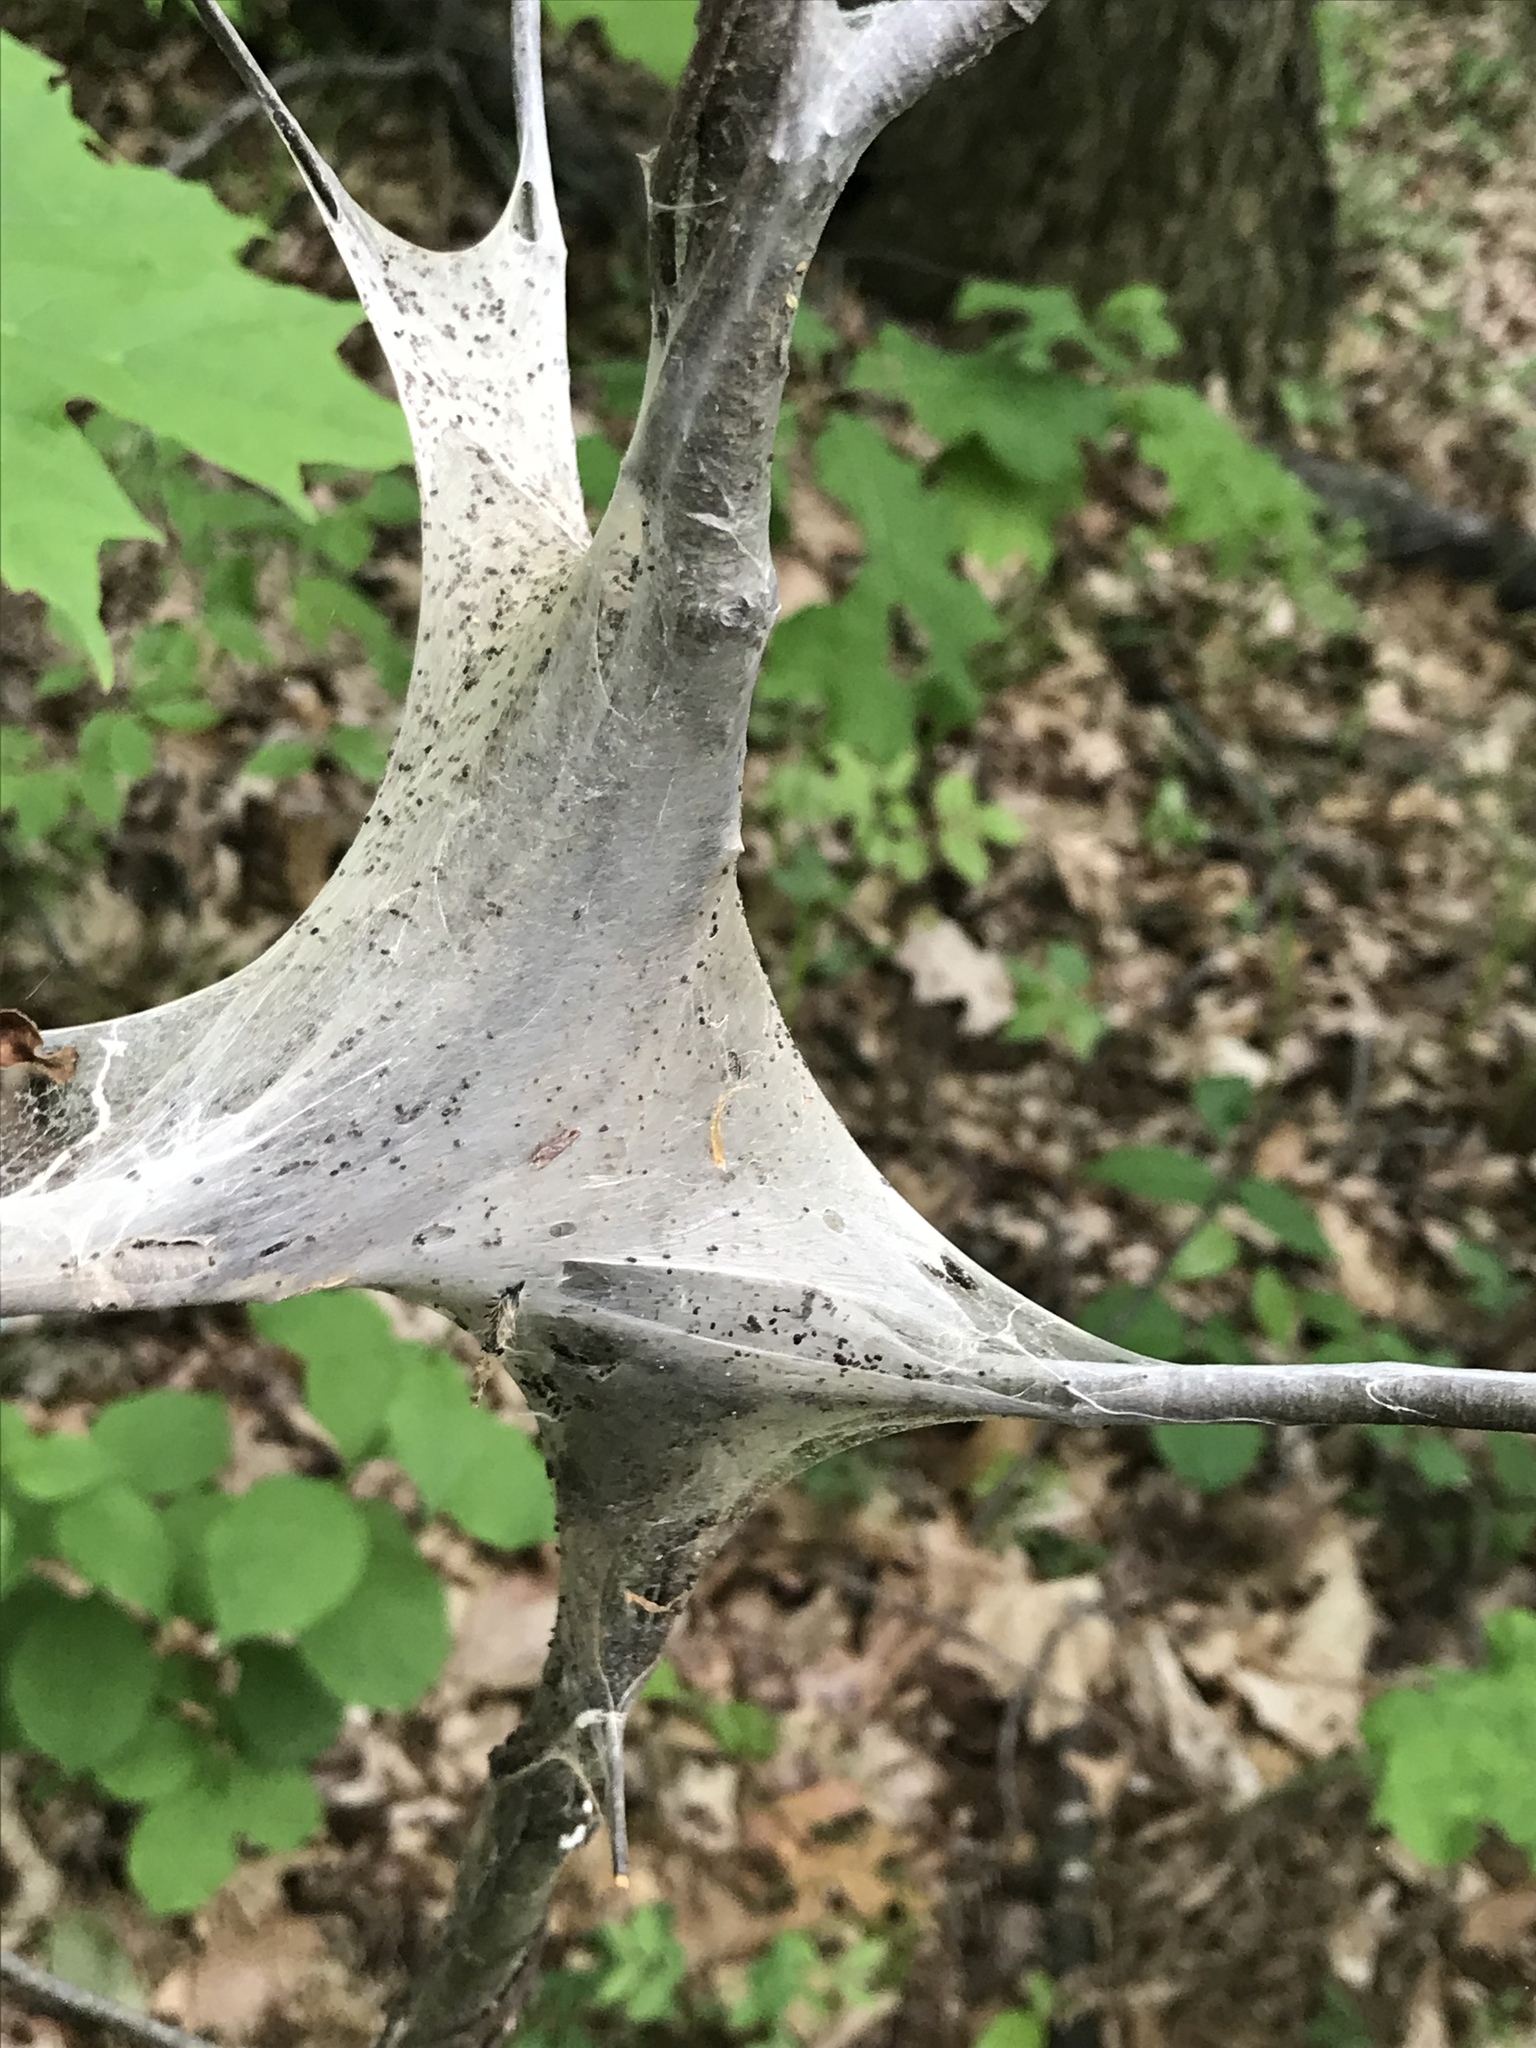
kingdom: Animalia
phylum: Arthropoda
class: Insecta
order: Lepidoptera
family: Lasiocampidae
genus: Malacosoma
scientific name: Malacosoma americana
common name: Eastern tent caterpillar moth
